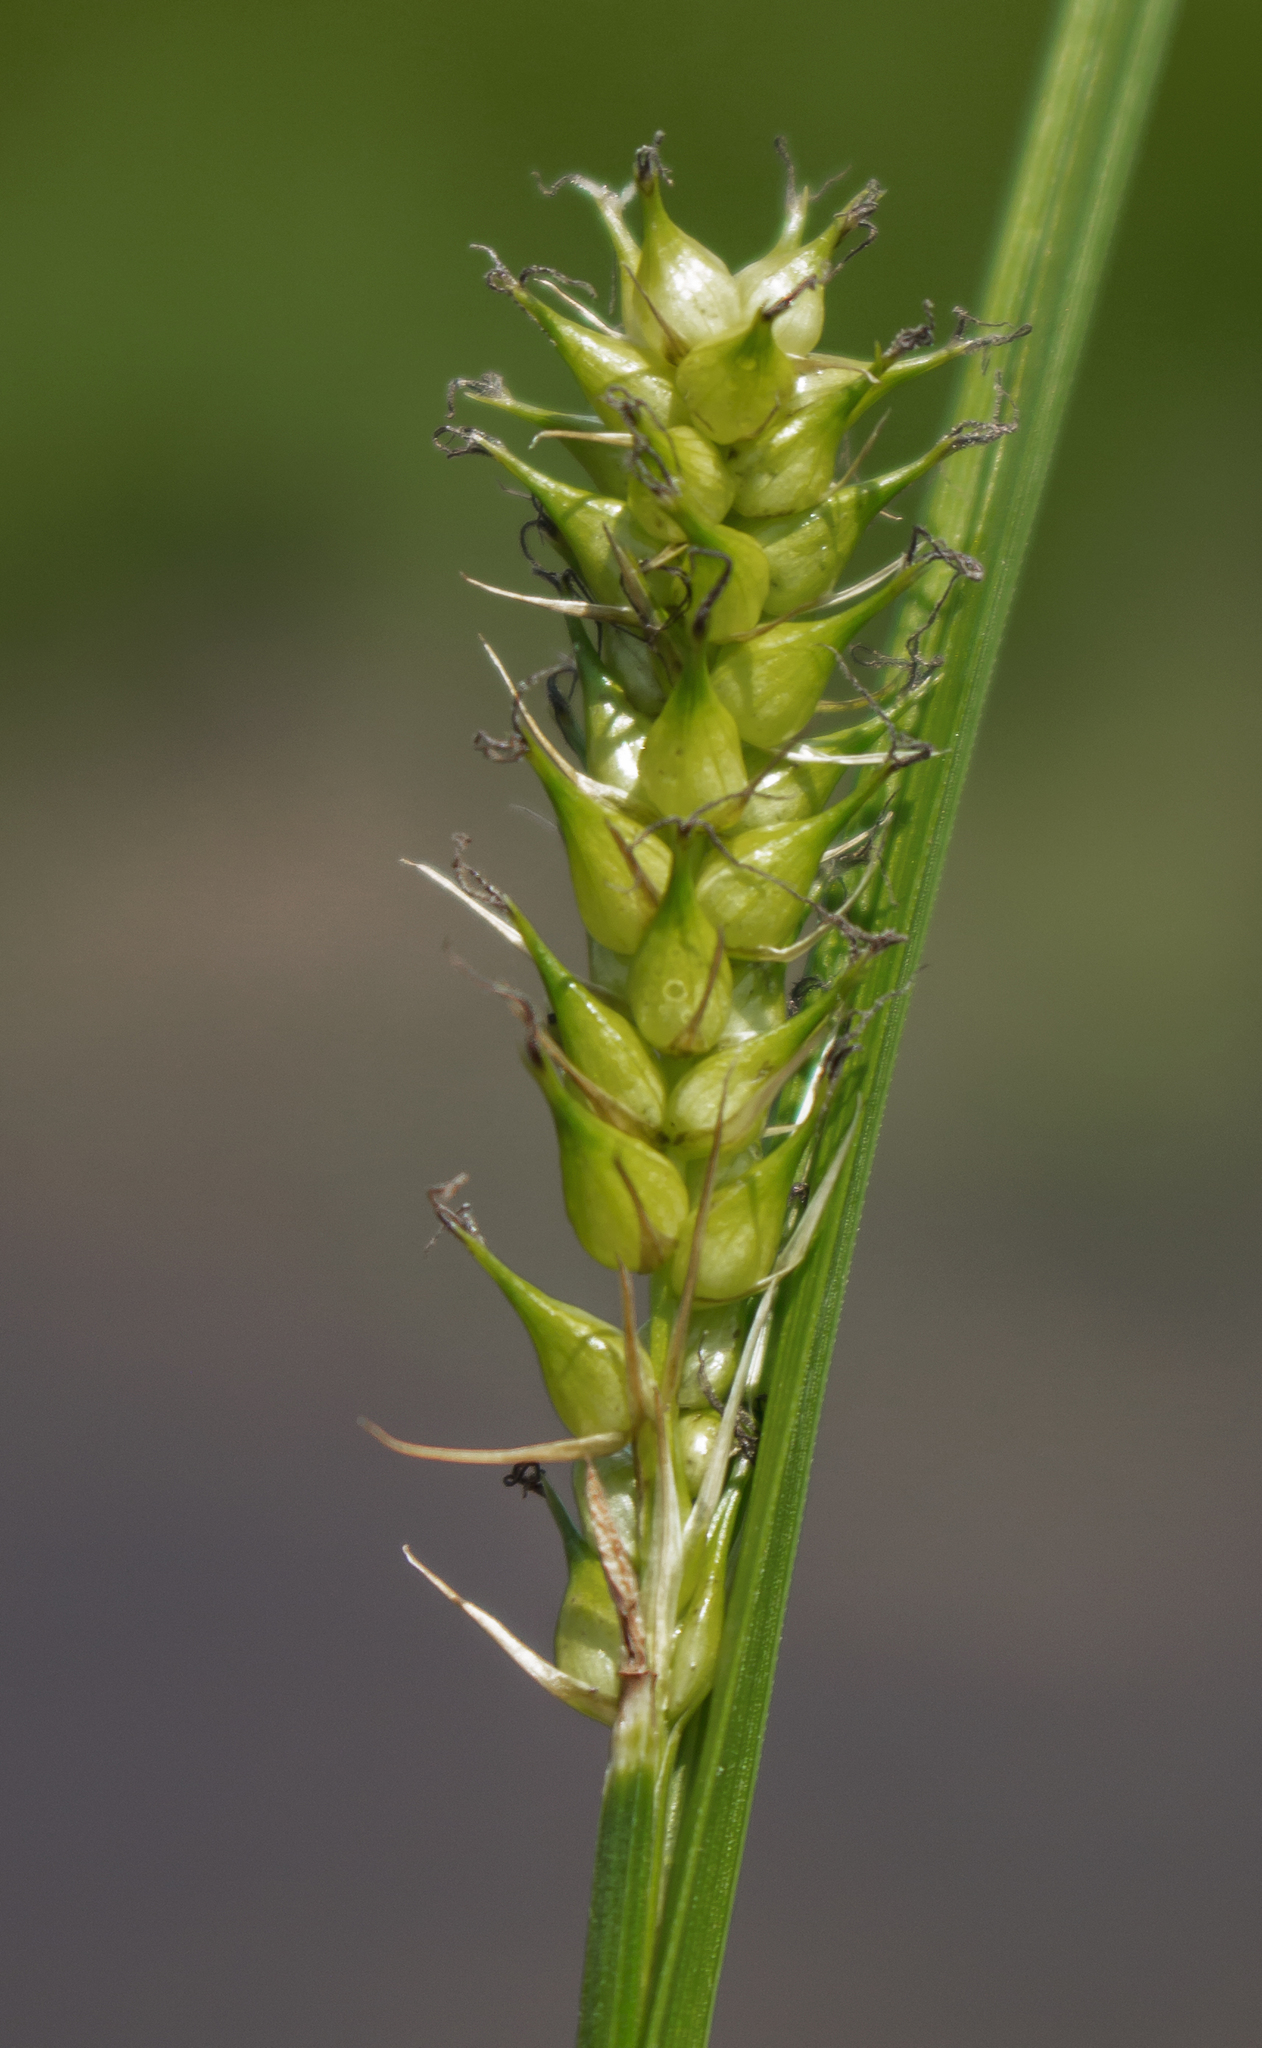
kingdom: Plantae
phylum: Tracheophyta
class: Liliopsida
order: Poales
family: Cyperaceae
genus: Carex
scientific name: Carex vesicaria
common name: Bladder-sedge
